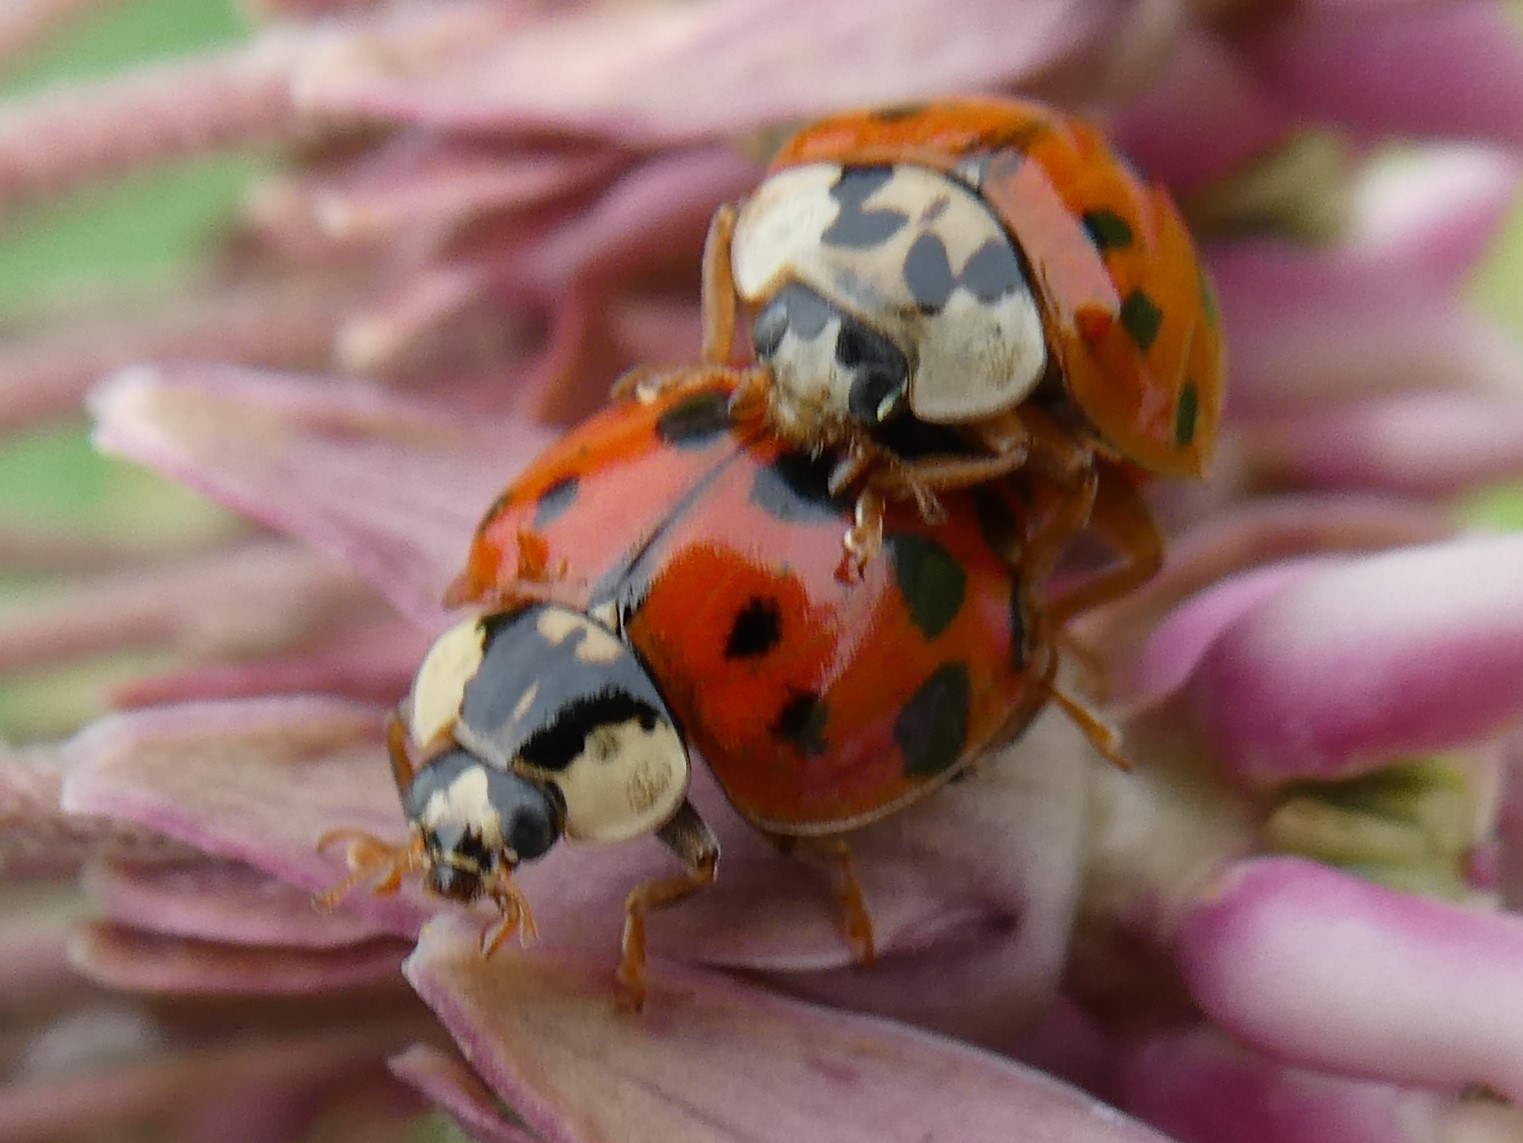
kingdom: Animalia
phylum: Arthropoda
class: Insecta
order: Coleoptera
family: Coccinellidae
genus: Harmonia
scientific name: Harmonia axyridis
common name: Harlequin ladybird
